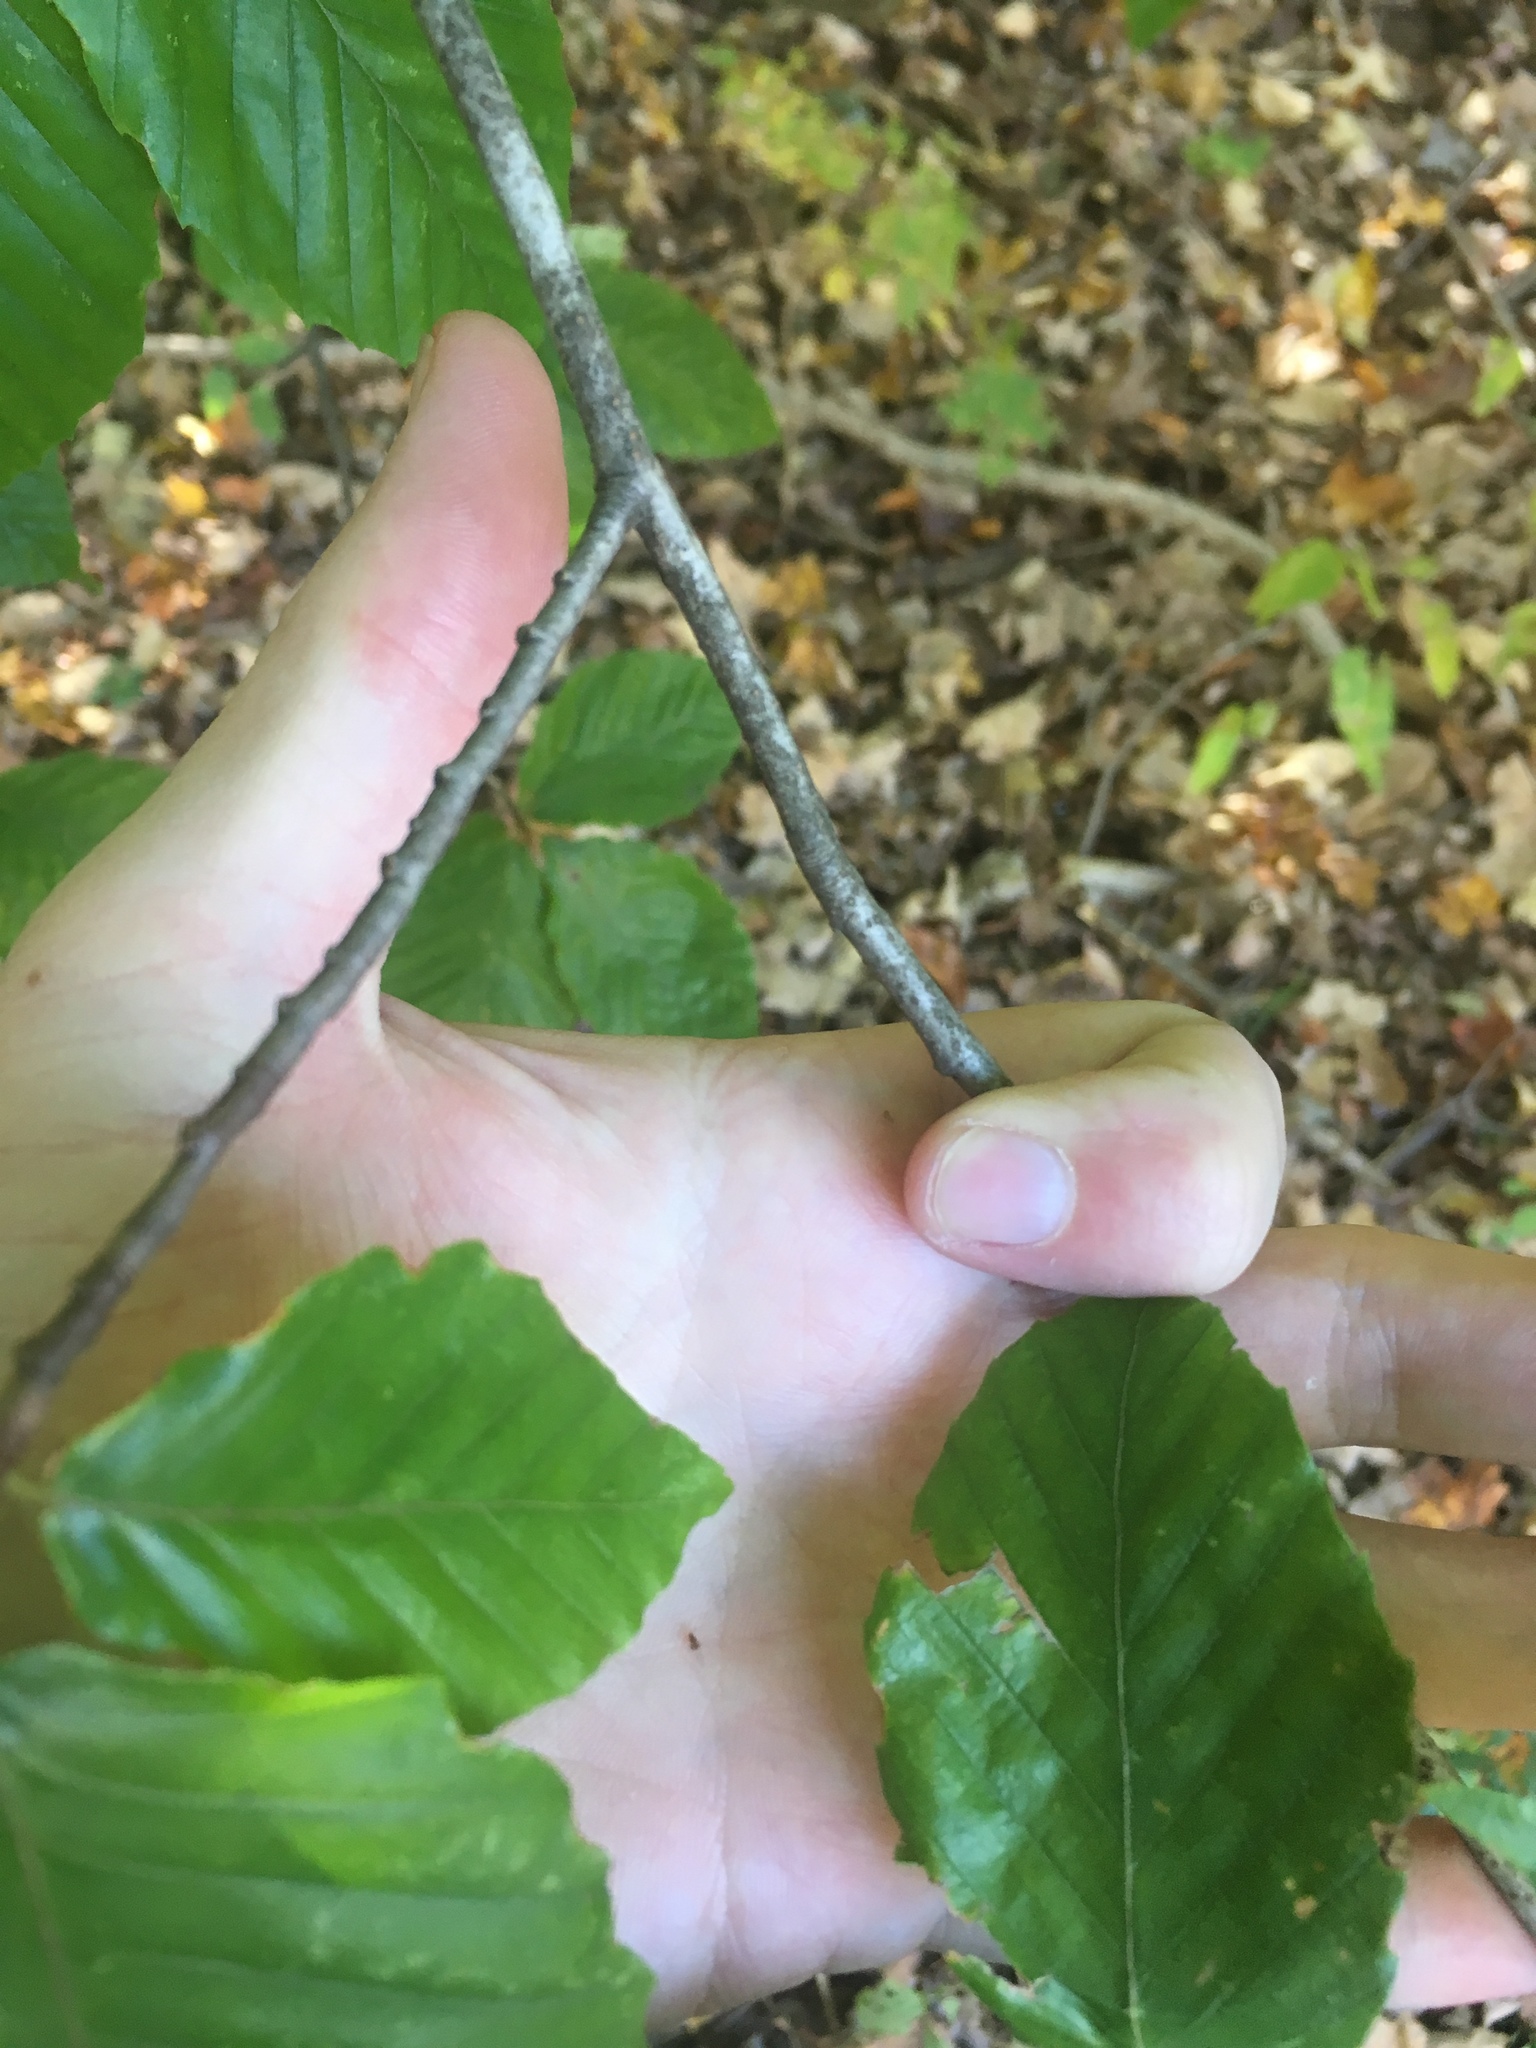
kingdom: Plantae
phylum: Tracheophyta
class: Magnoliopsida
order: Fagales
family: Fagaceae
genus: Fagus
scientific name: Fagus grandifolia
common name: American beech
